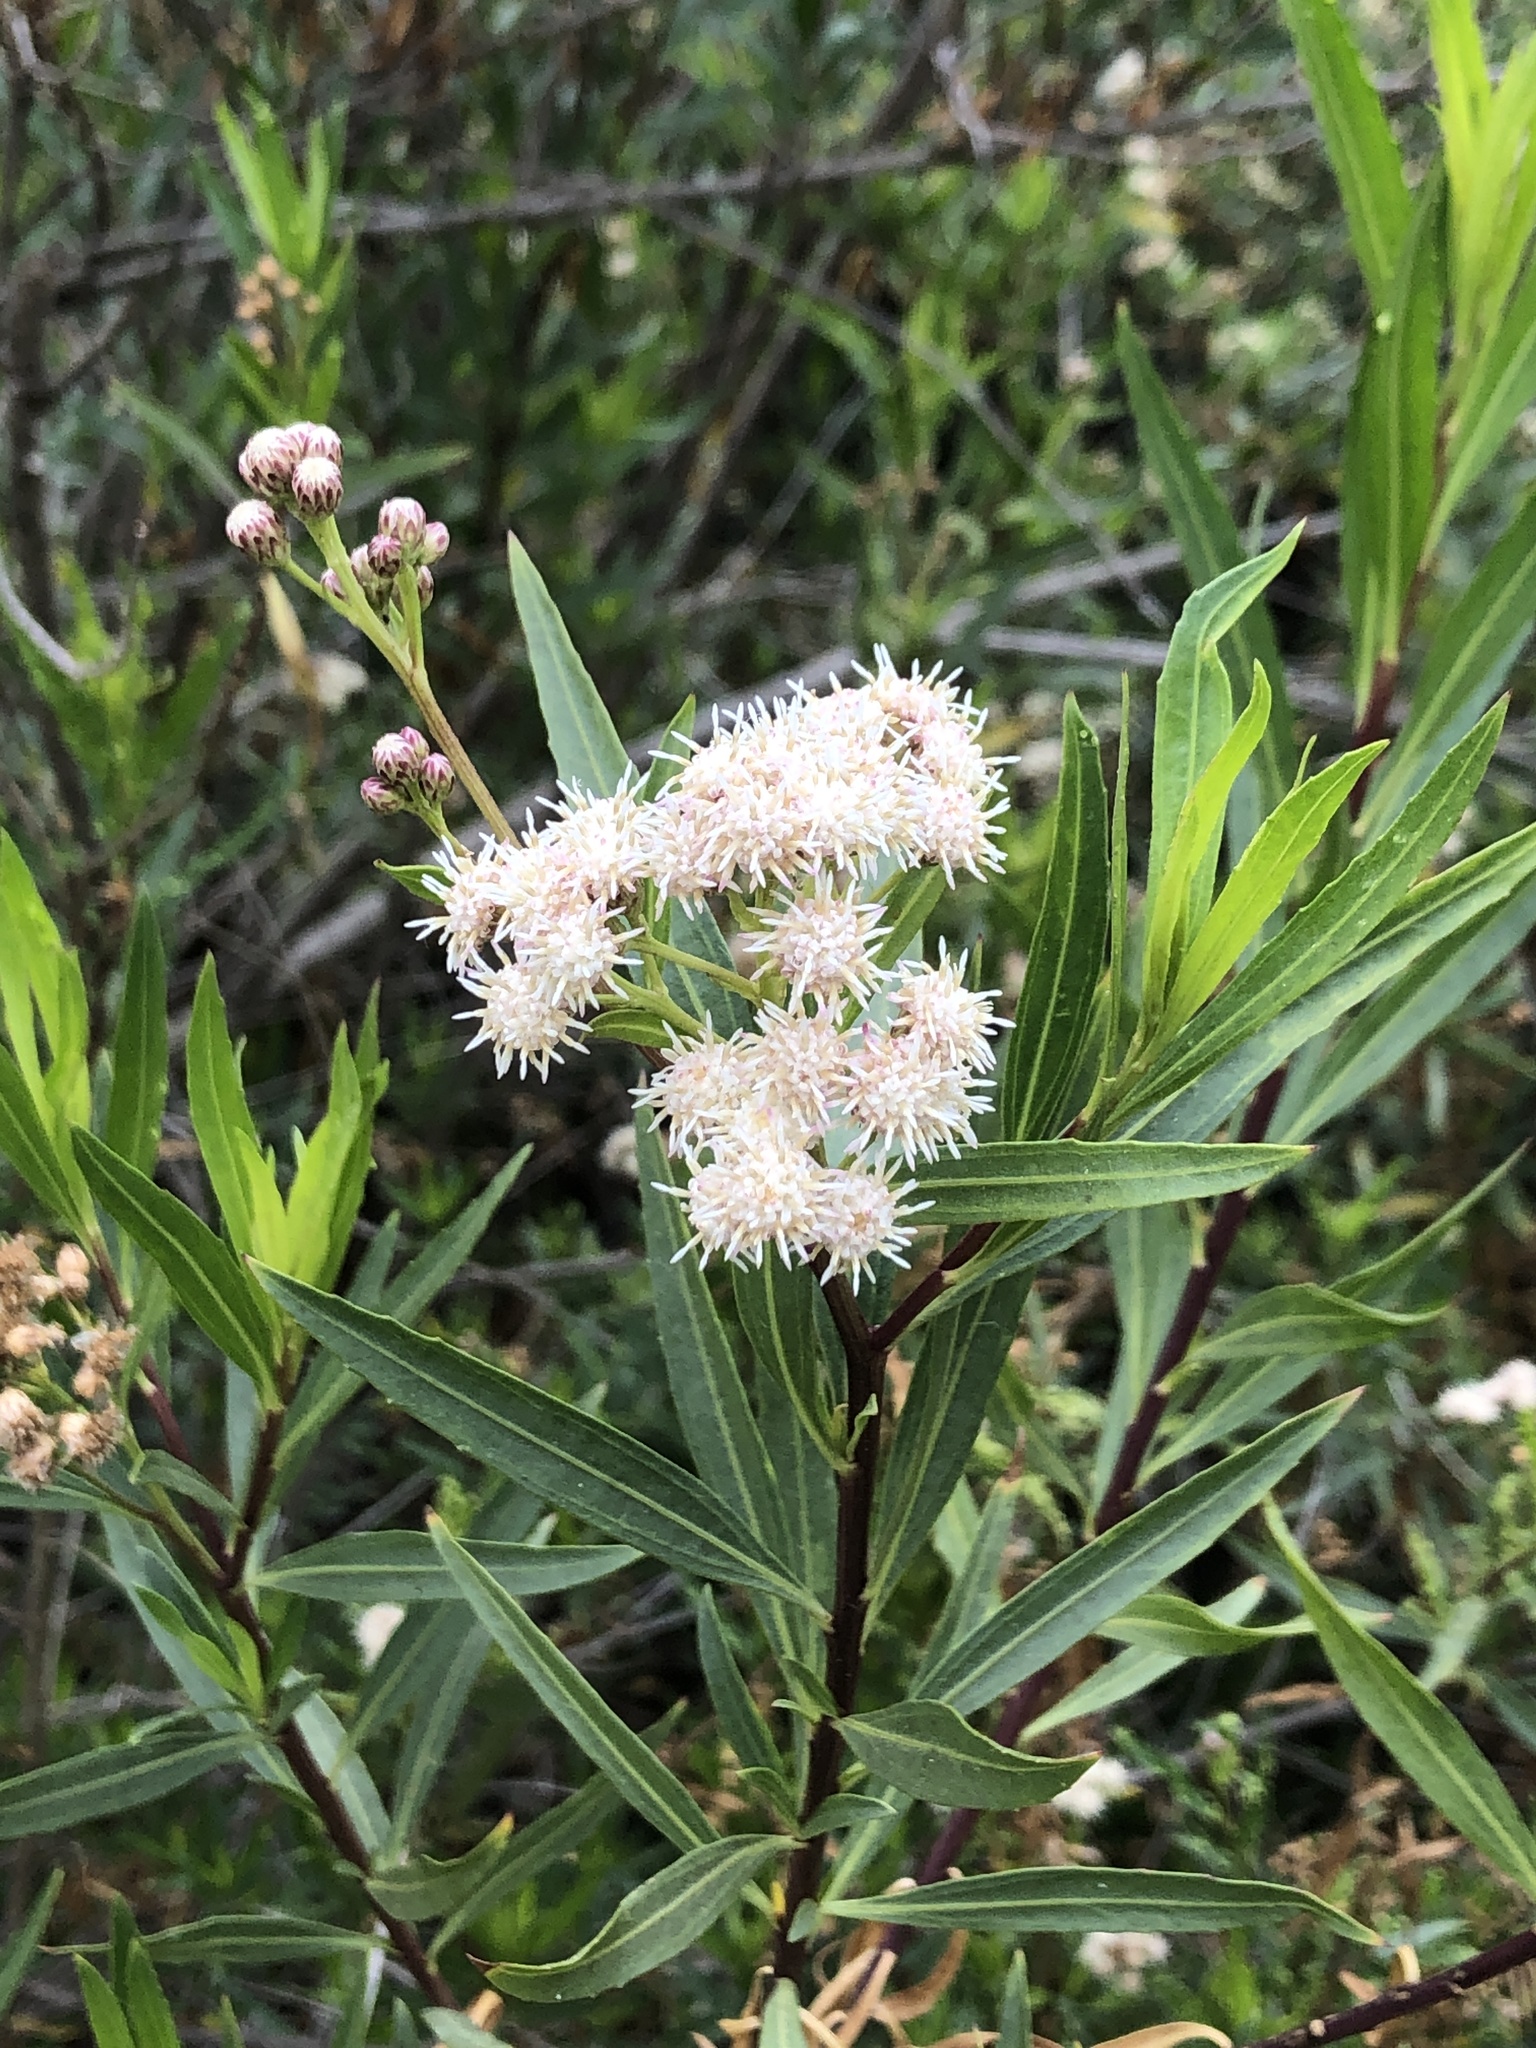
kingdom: Plantae
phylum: Tracheophyta
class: Magnoliopsida
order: Asterales
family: Asteraceae
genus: Baccharis
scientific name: Baccharis salicifolia
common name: Sticky baccharis
